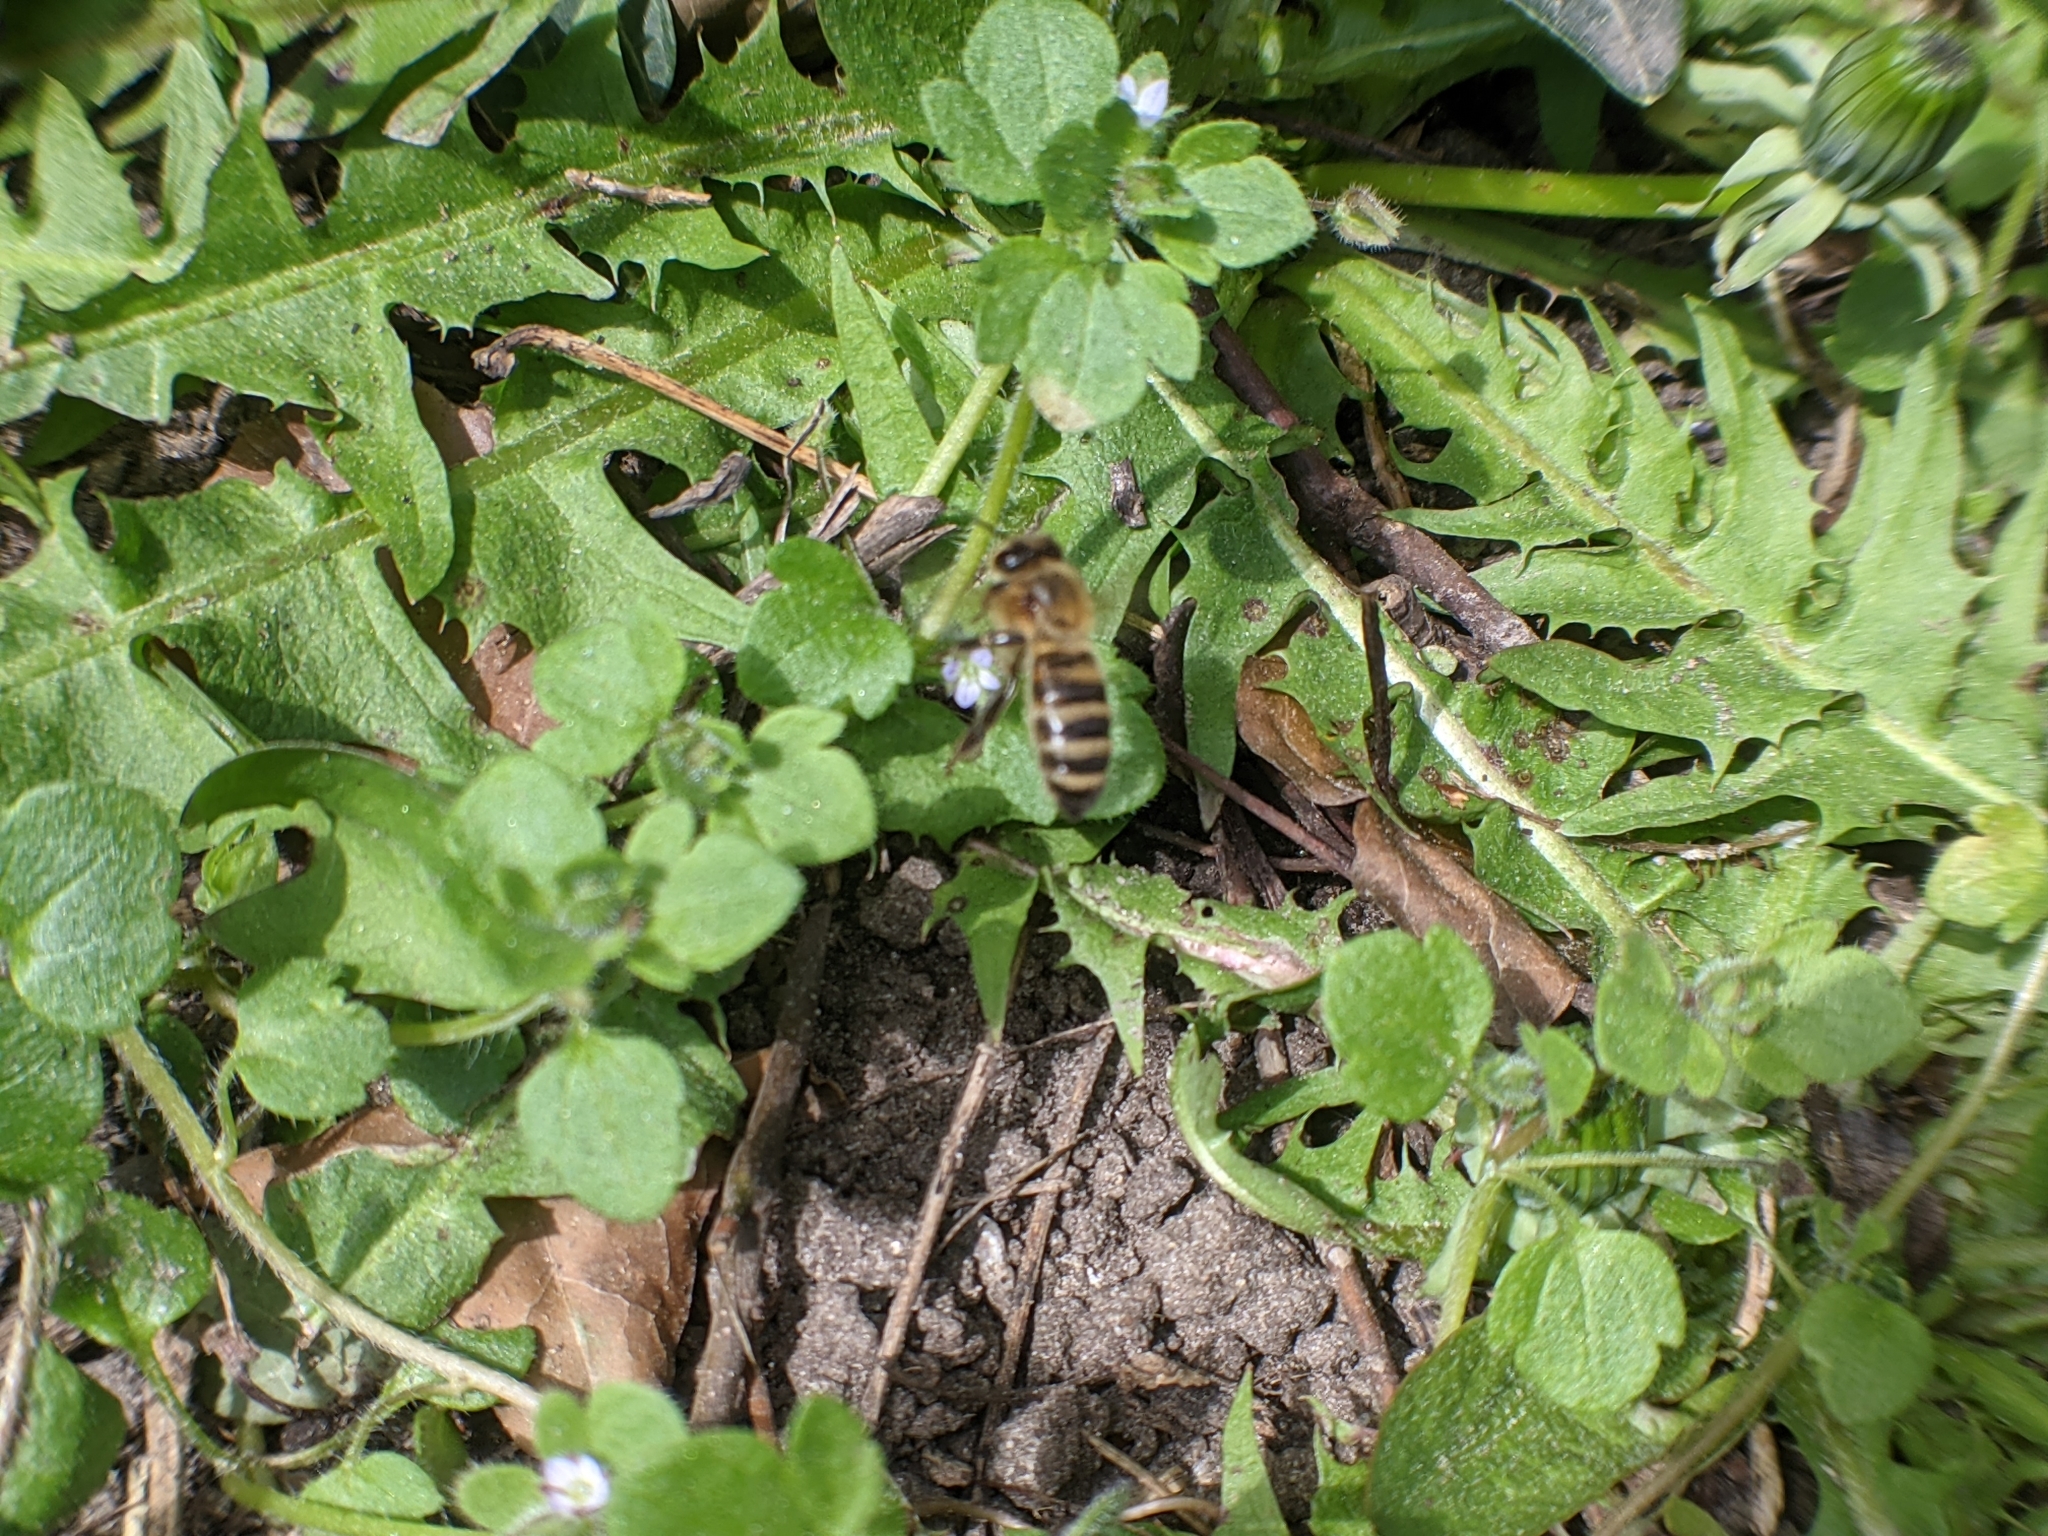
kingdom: Animalia
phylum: Arthropoda
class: Insecta
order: Hymenoptera
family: Apidae
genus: Apis
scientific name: Apis mellifera
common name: Honey bee
